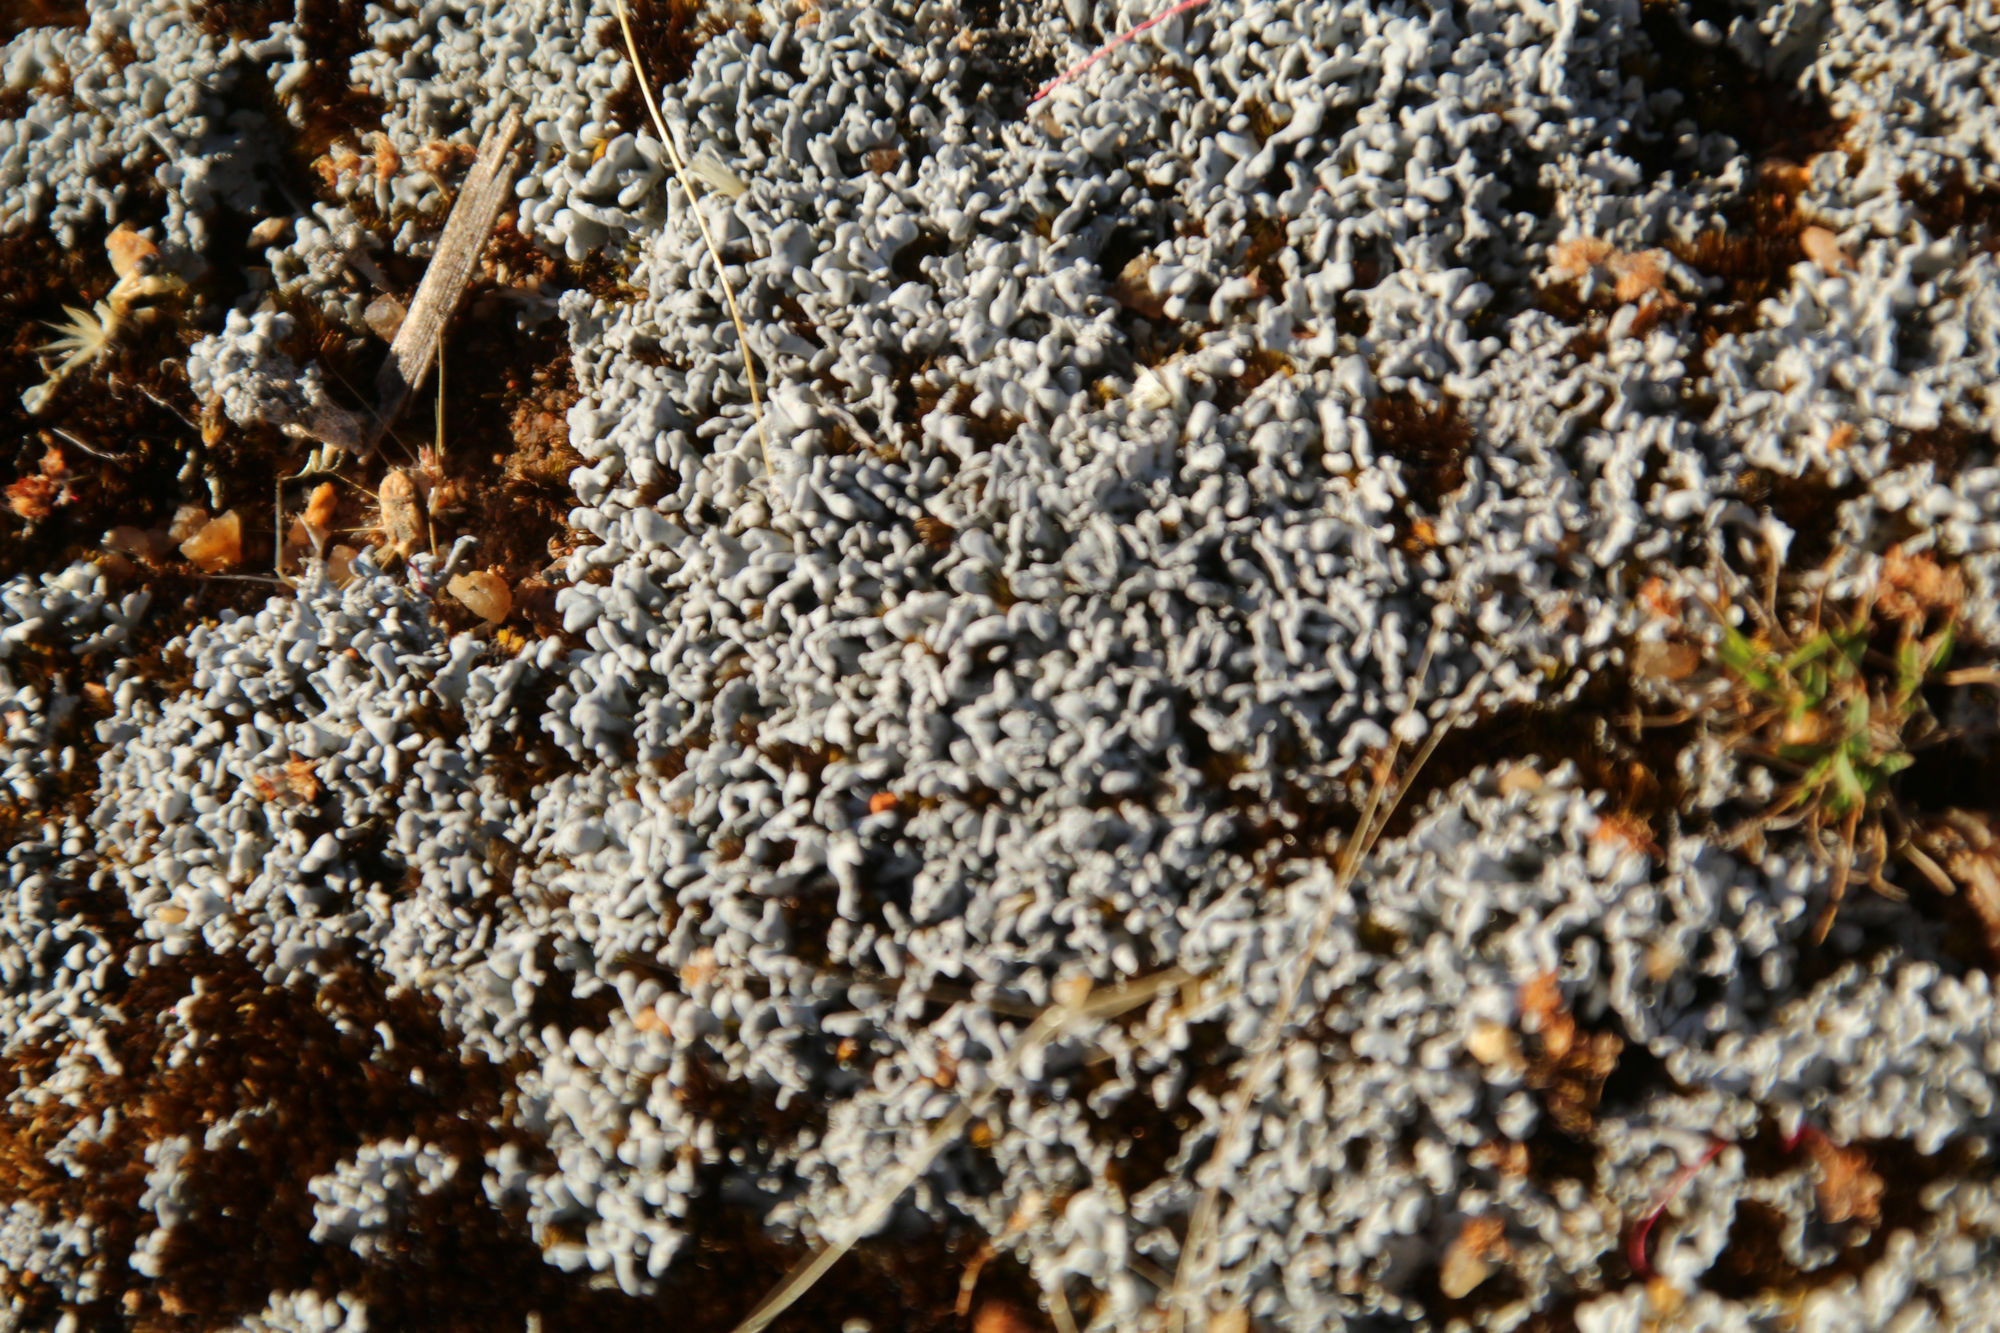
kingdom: Fungi
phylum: Ascomycota
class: Lecanoromycetes
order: Pertusariales
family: Icmadophilaceae
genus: Siphula
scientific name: Siphula coriacea
